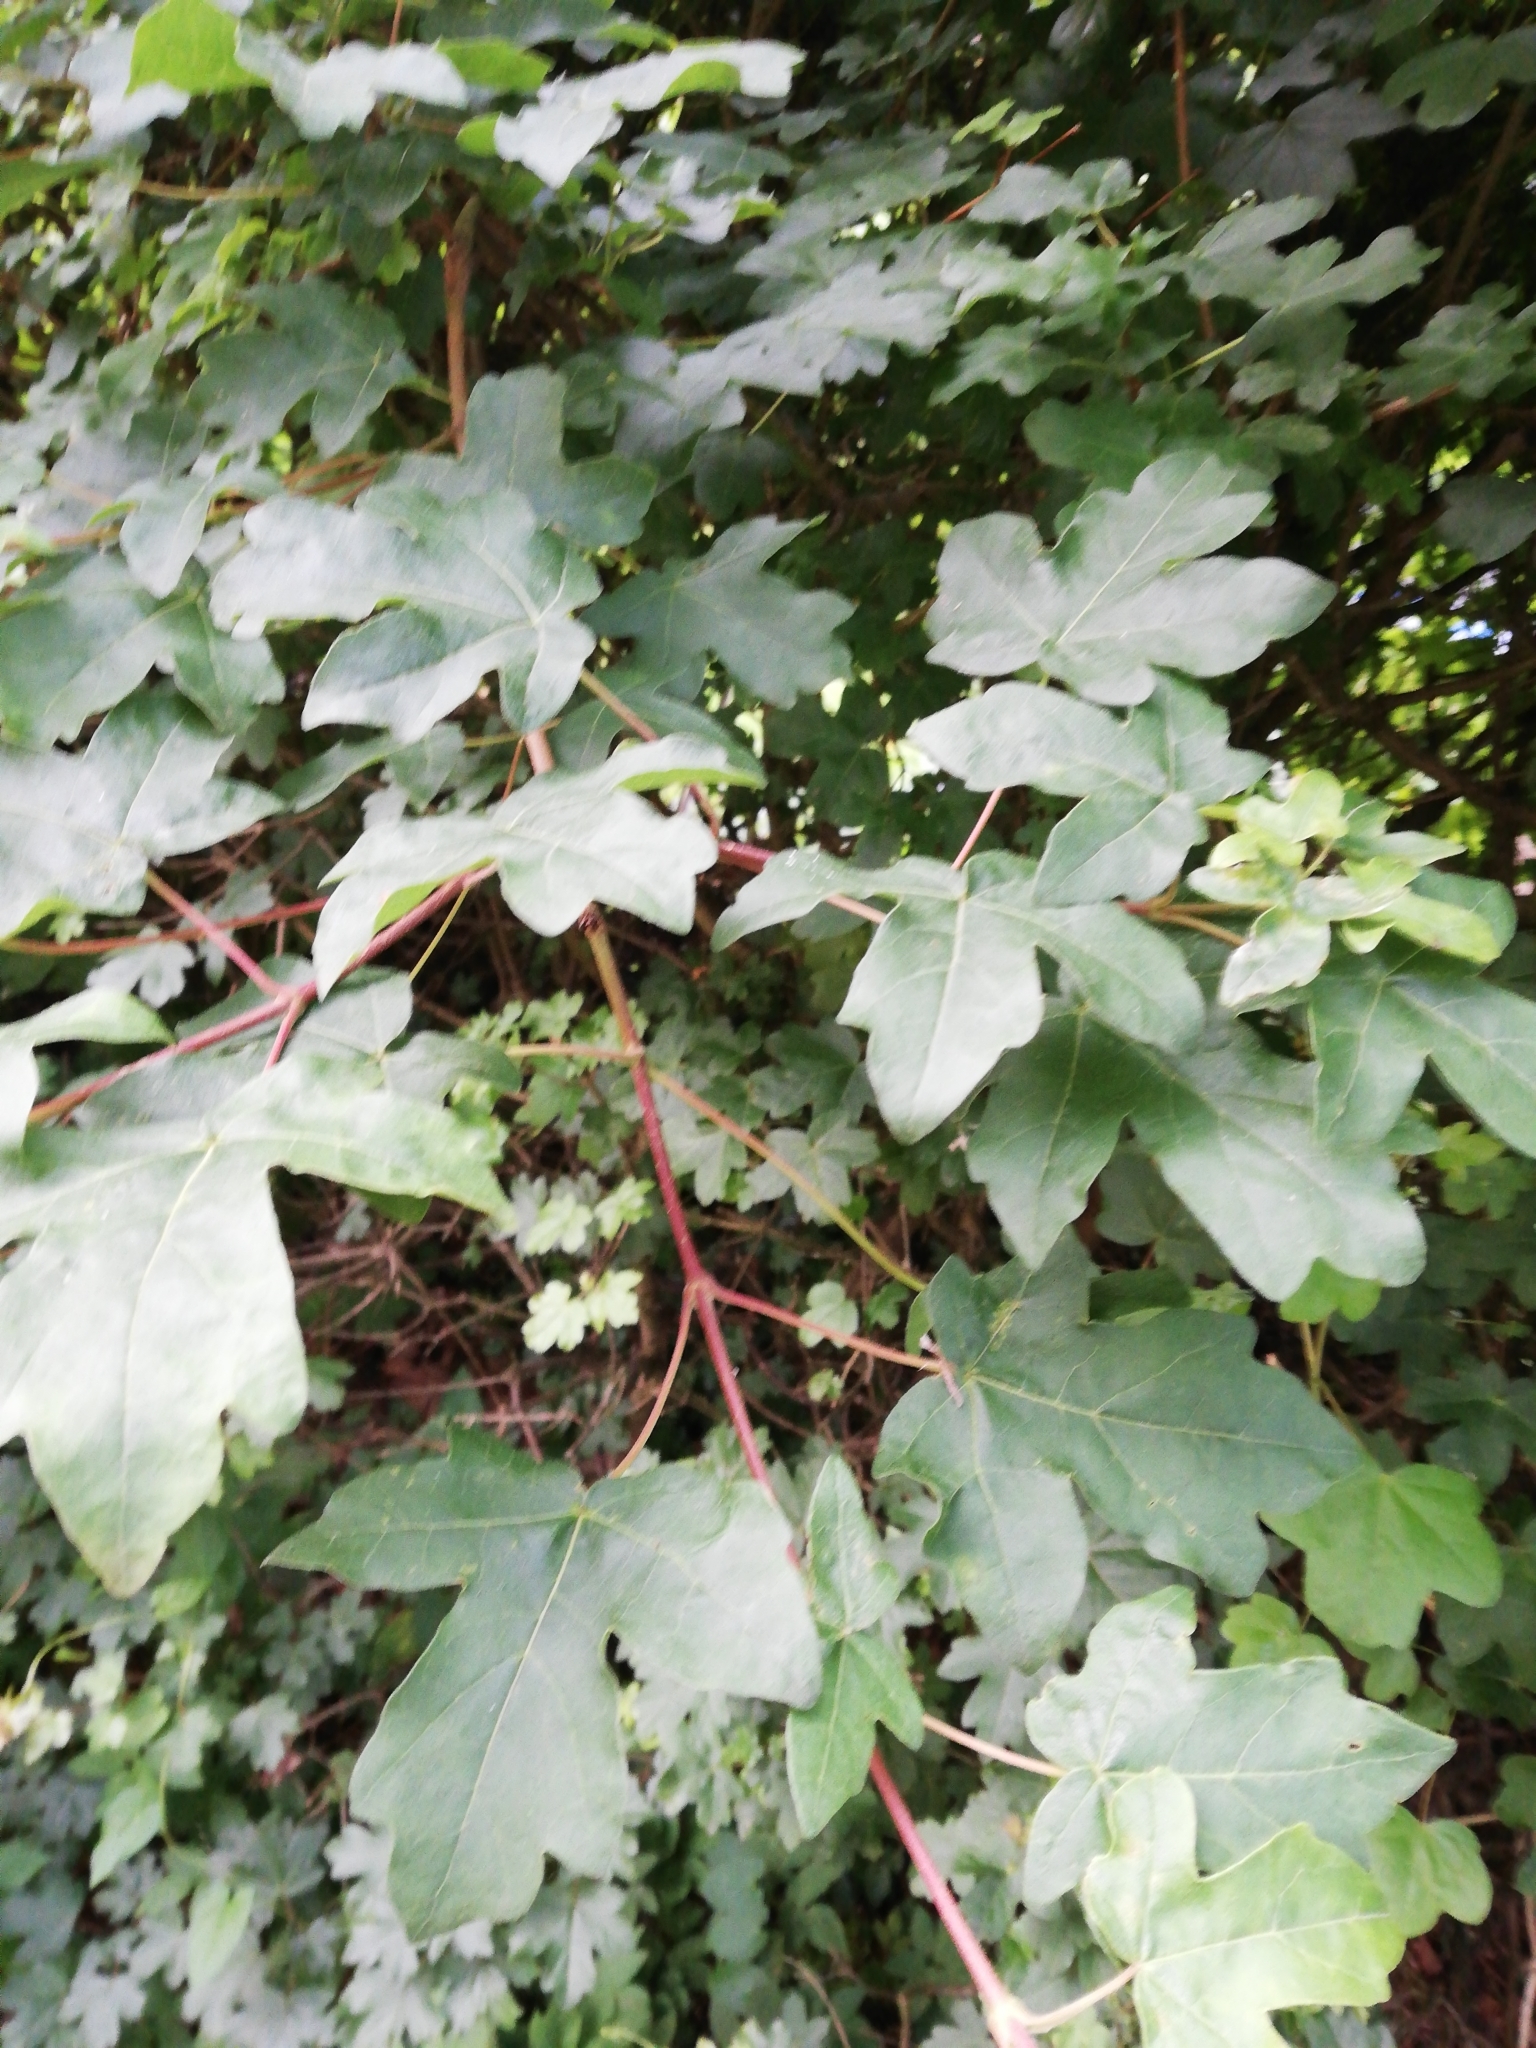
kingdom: Plantae
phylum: Tracheophyta
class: Magnoliopsida
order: Sapindales
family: Sapindaceae
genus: Acer
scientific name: Acer campestre
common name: Field maple
